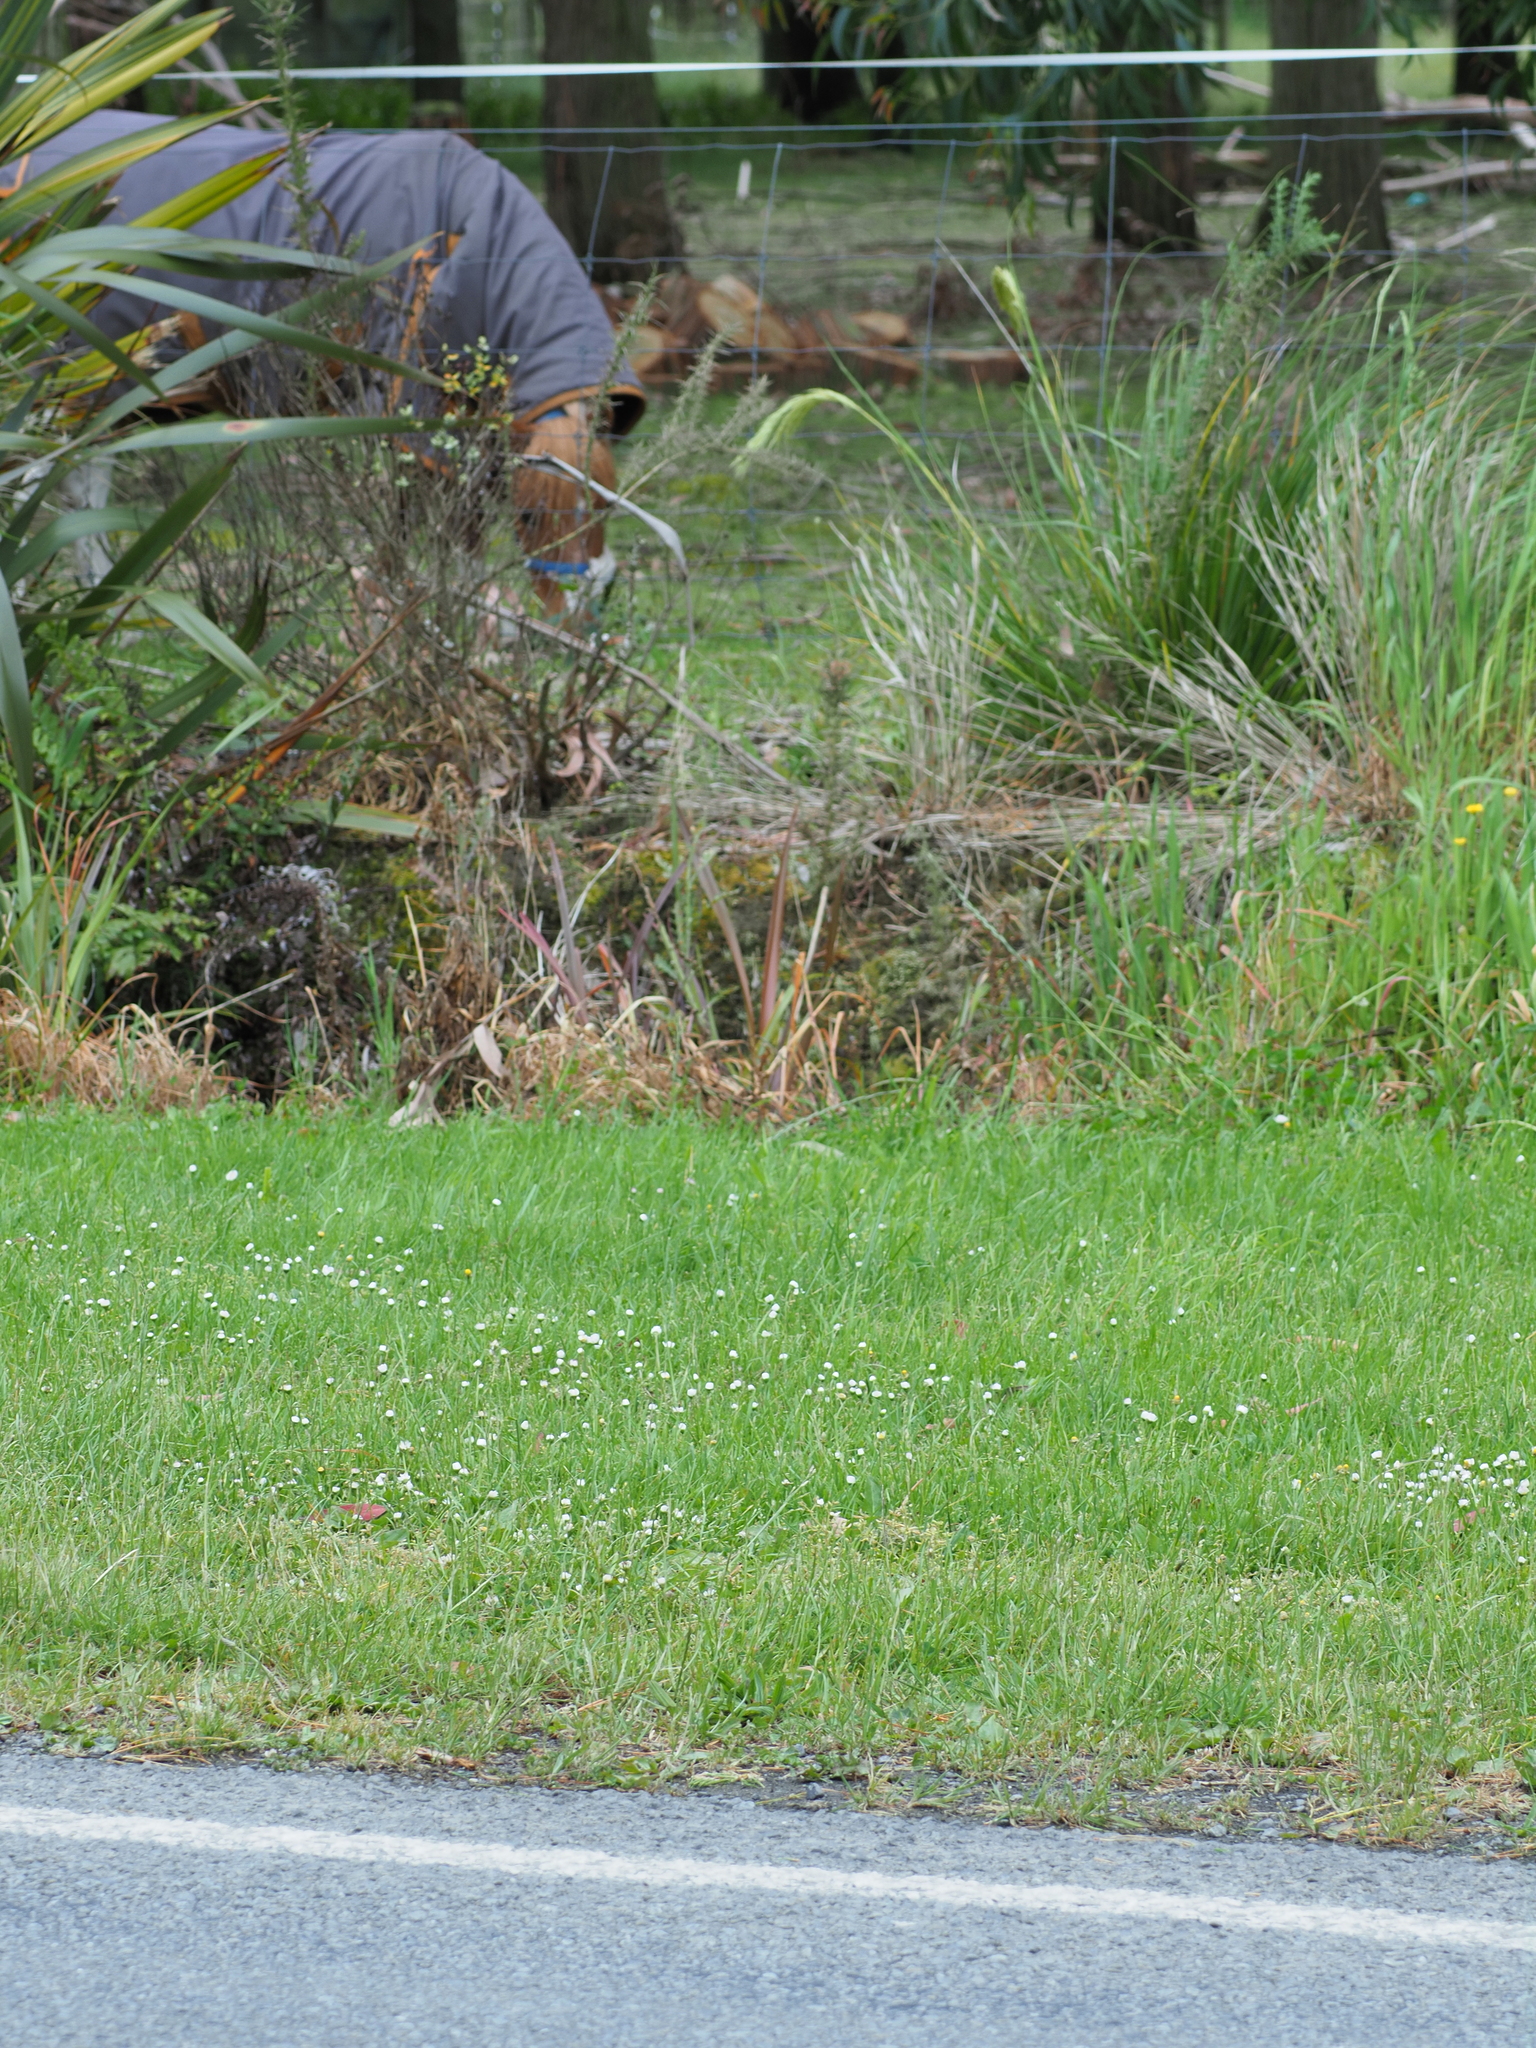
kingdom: Plantae
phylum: Tracheophyta
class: Polypodiopsida
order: Salviniales
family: Salviniaceae
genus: Azolla
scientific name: Azolla rubra
